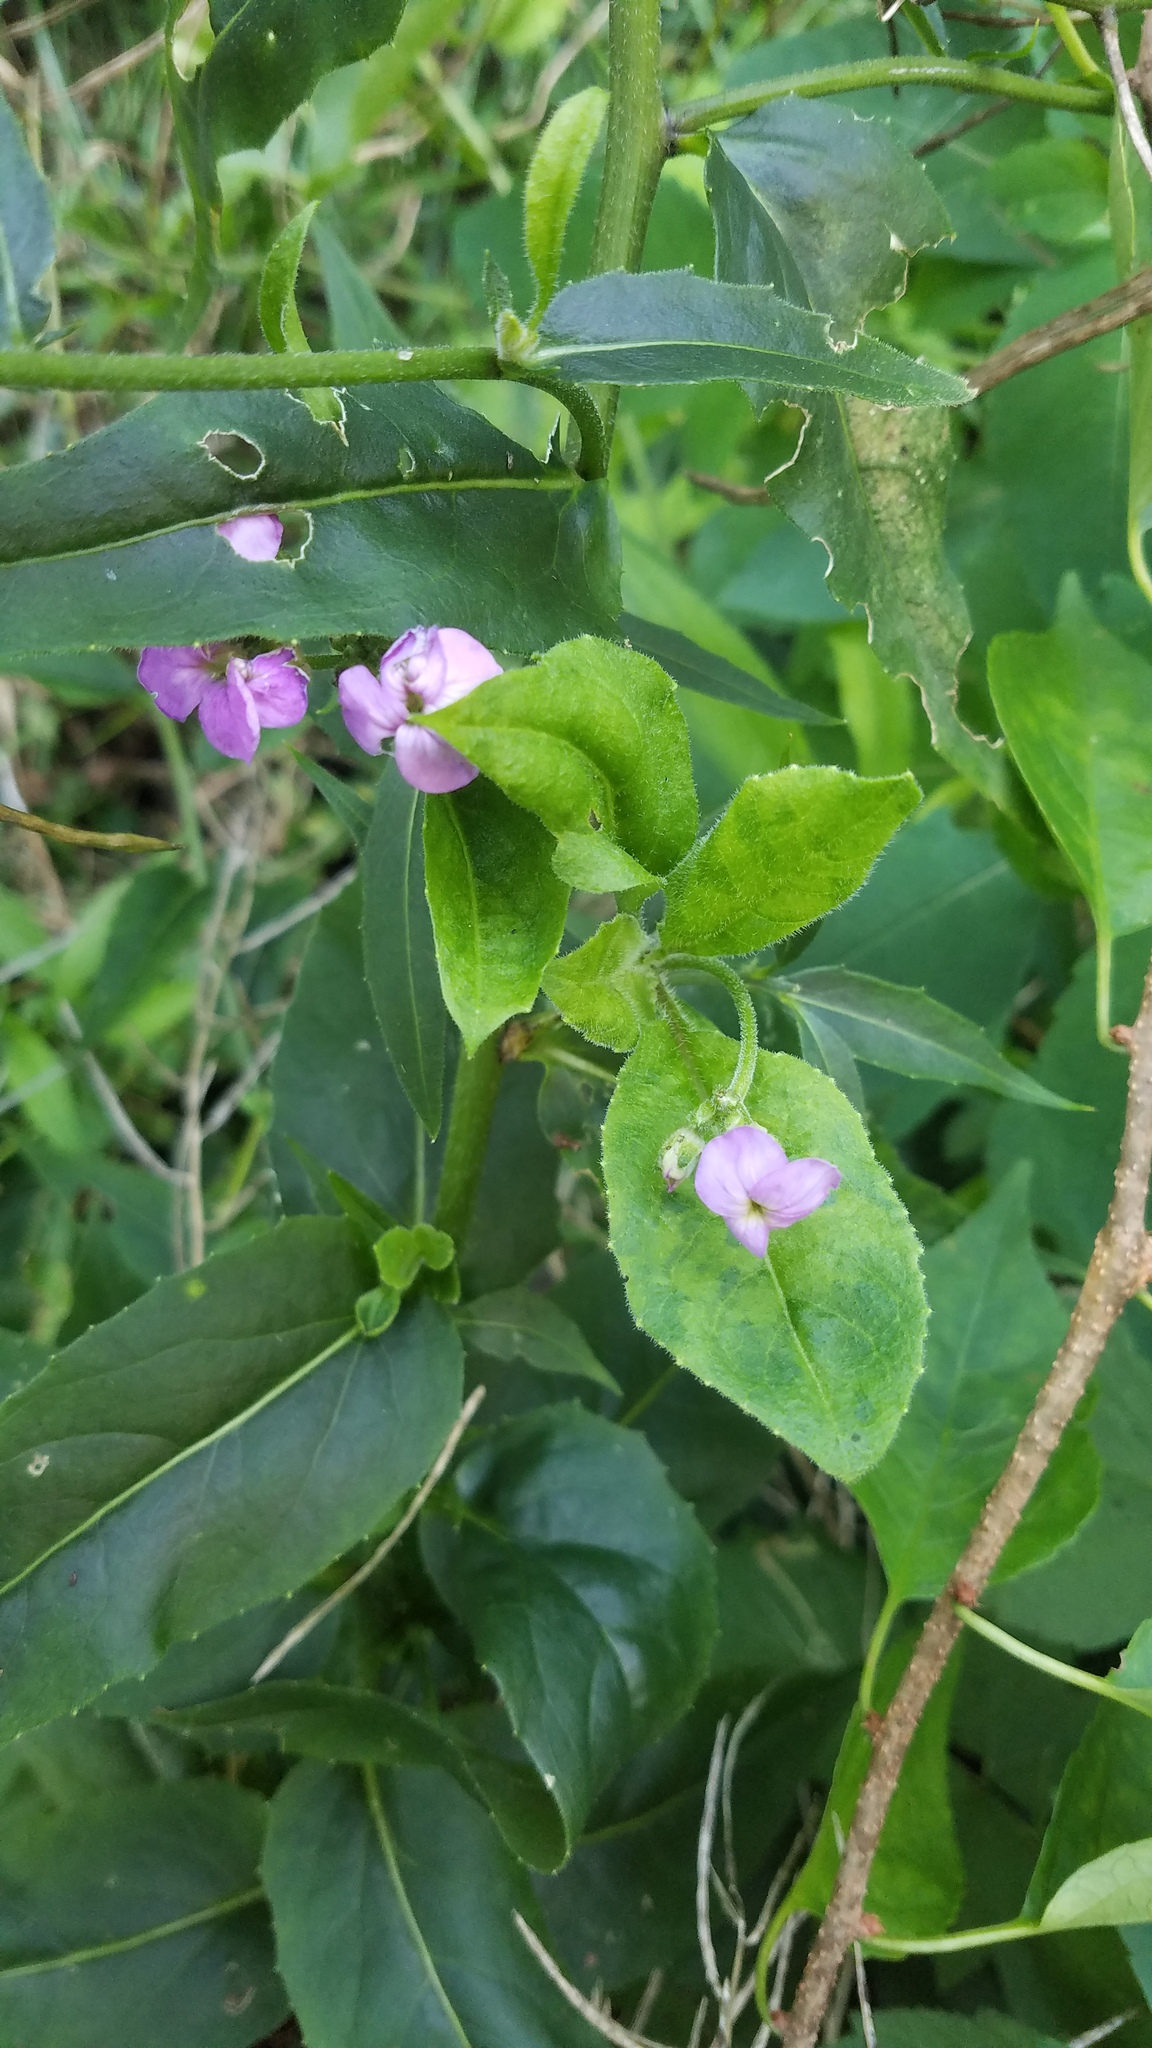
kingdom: Plantae
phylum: Tracheophyta
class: Magnoliopsida
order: Brassicales
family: Brassicaceae
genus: Hesperis
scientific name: Hesperis matronalis
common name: Dame's-violet
